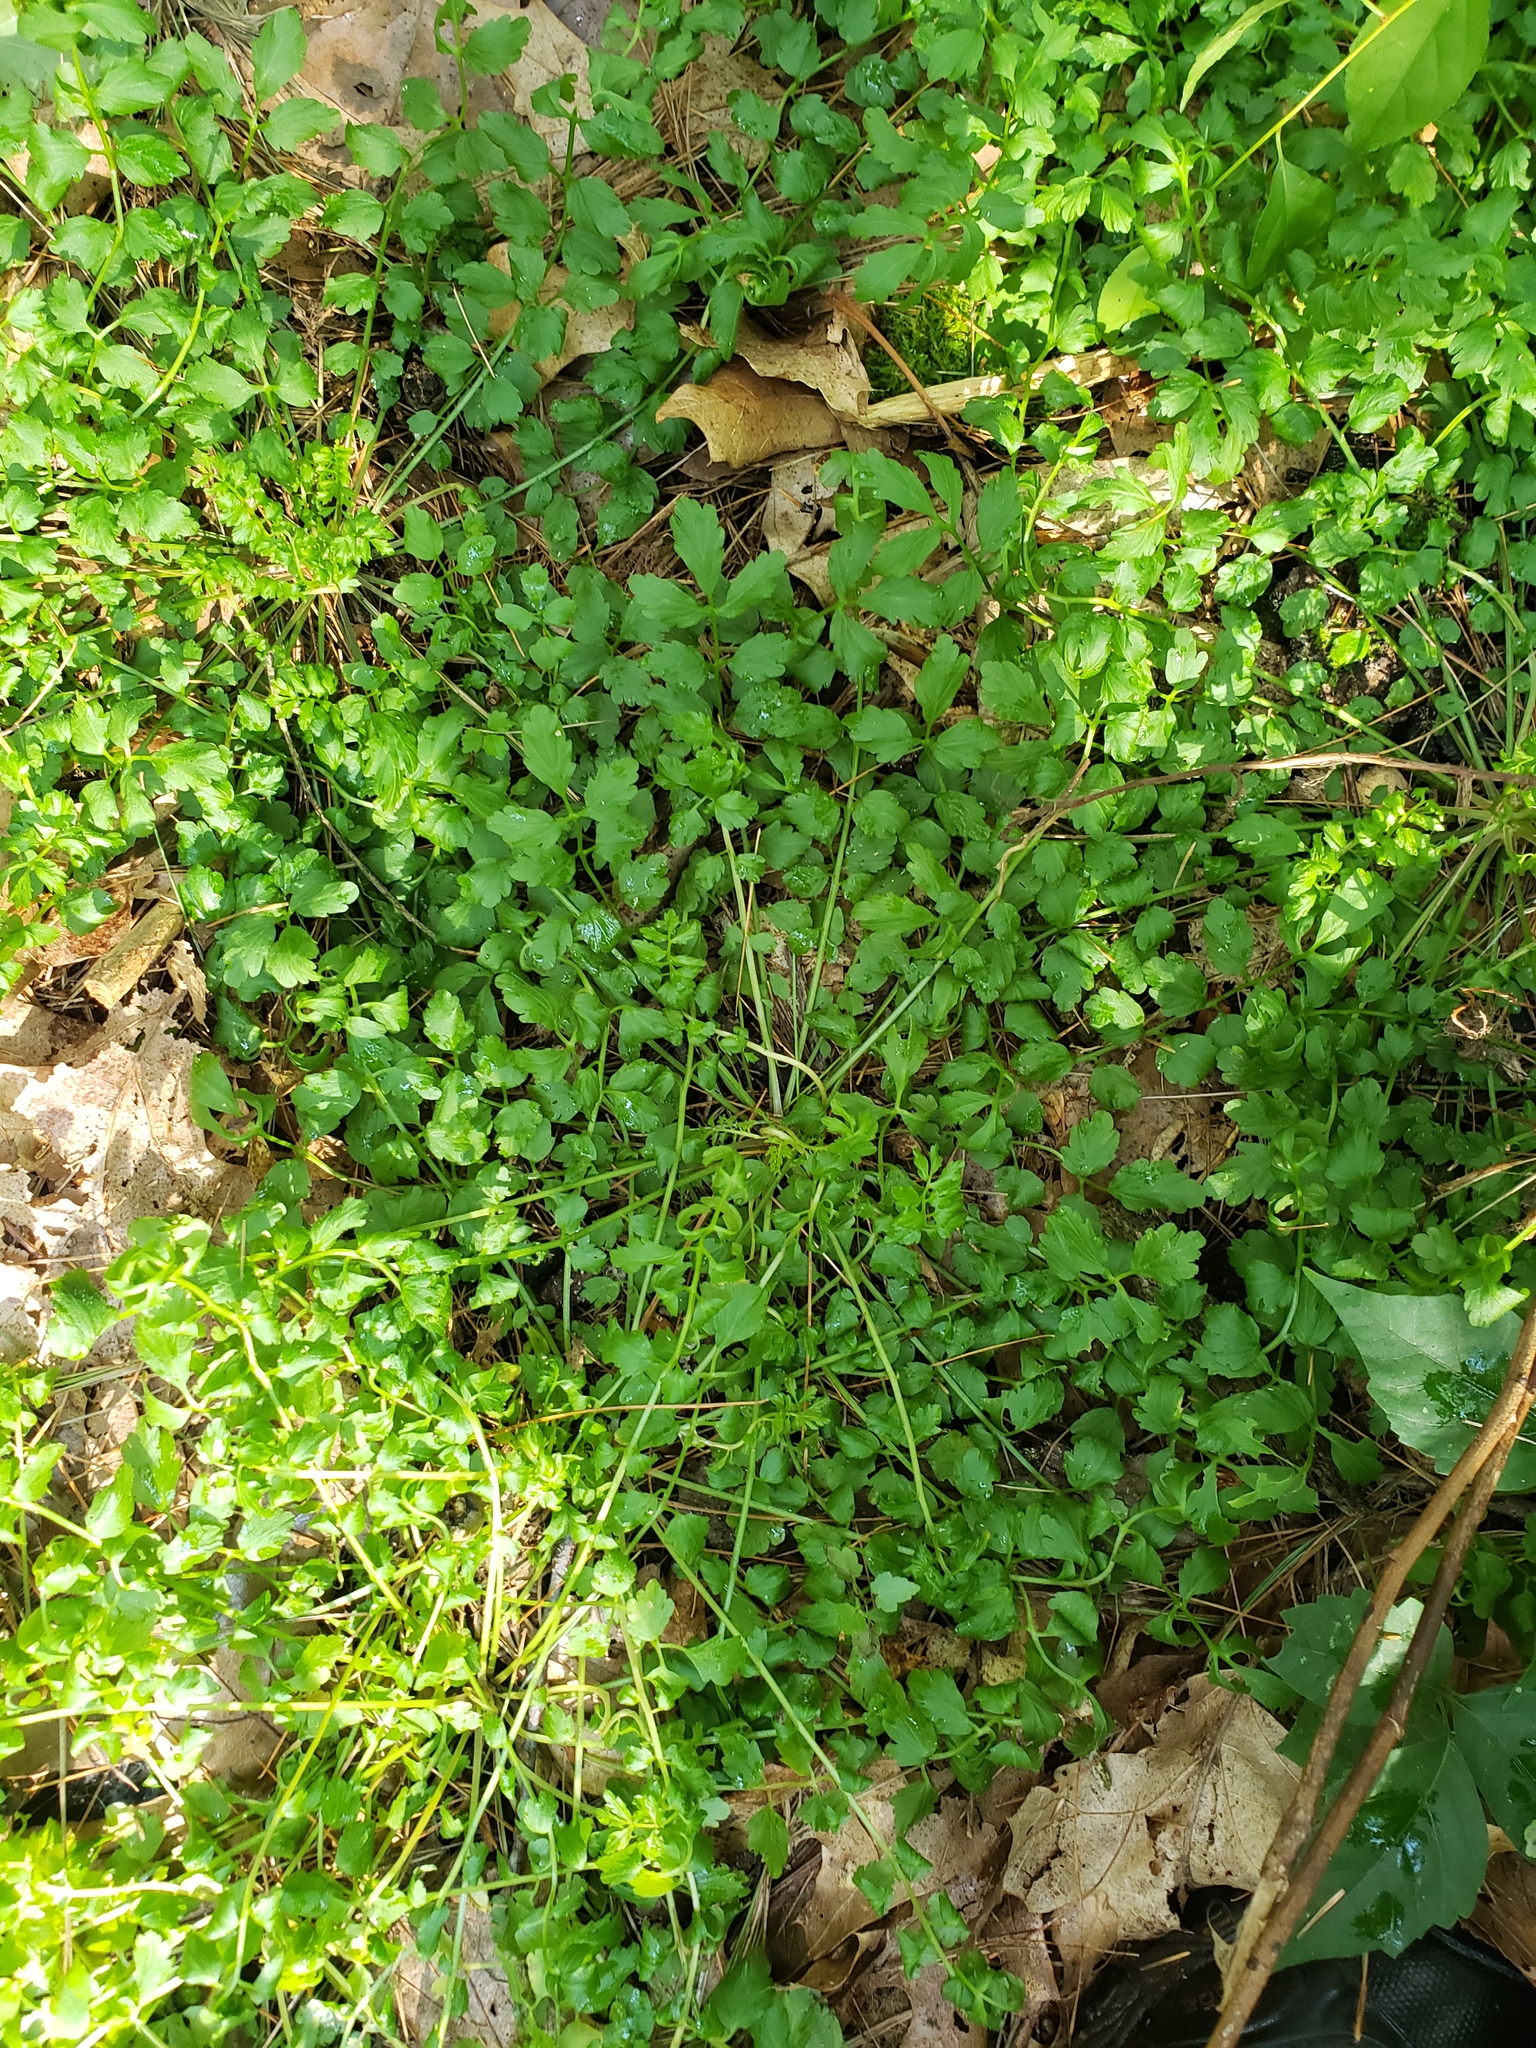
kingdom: Plantae
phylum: Tracheophyta
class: Magnoliopsida
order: Brassicales
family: Brassicaceae
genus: Cardamine
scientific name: Cardamine impatiens
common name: Narrow-leaved bitter-cress
